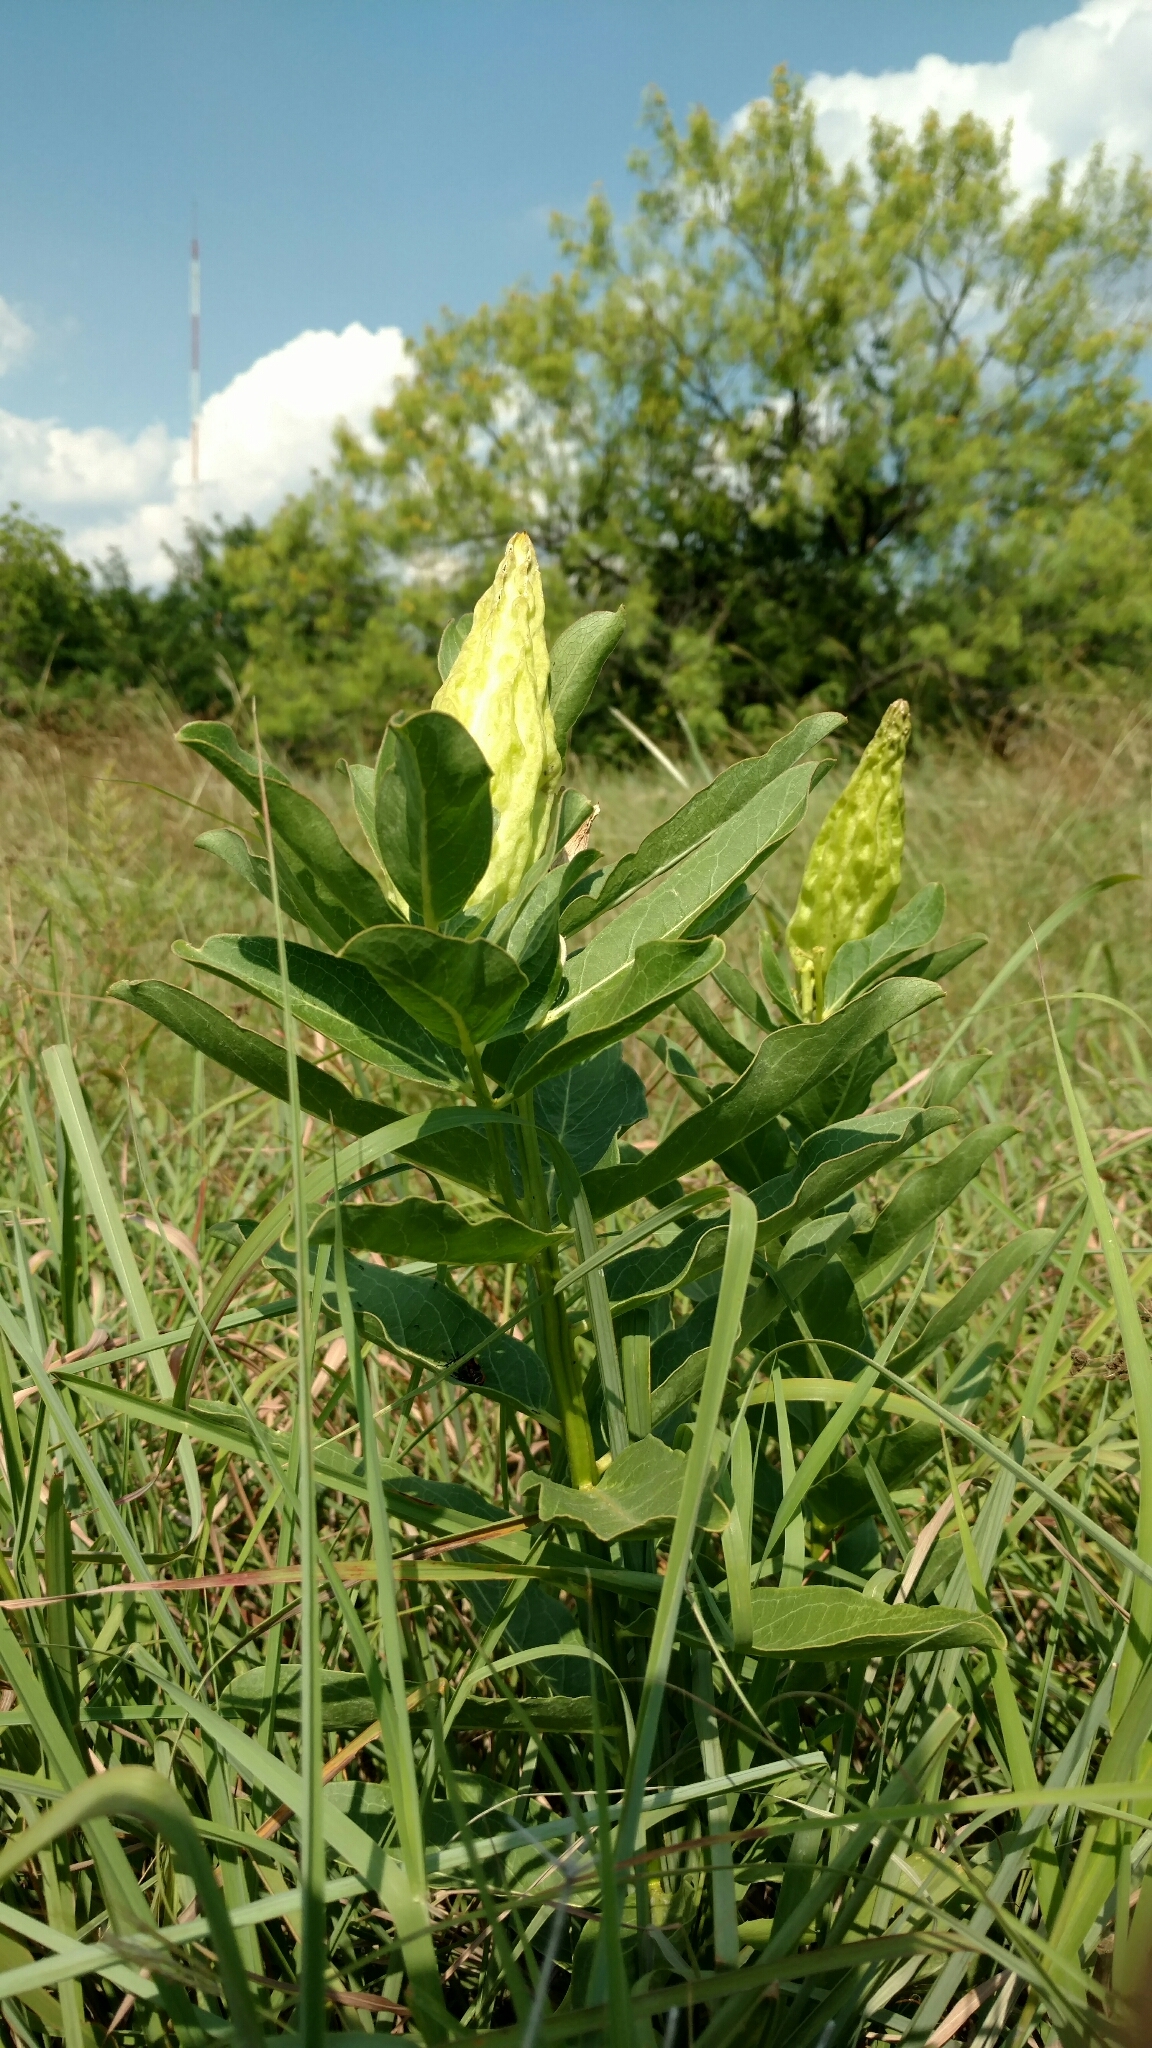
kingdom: Plantae
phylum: Tracheophyta
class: Magnoliopsida
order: Gentianales
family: Apocynaceae
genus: Asclepias
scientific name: Asclepias viridis
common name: Antelope-horns
